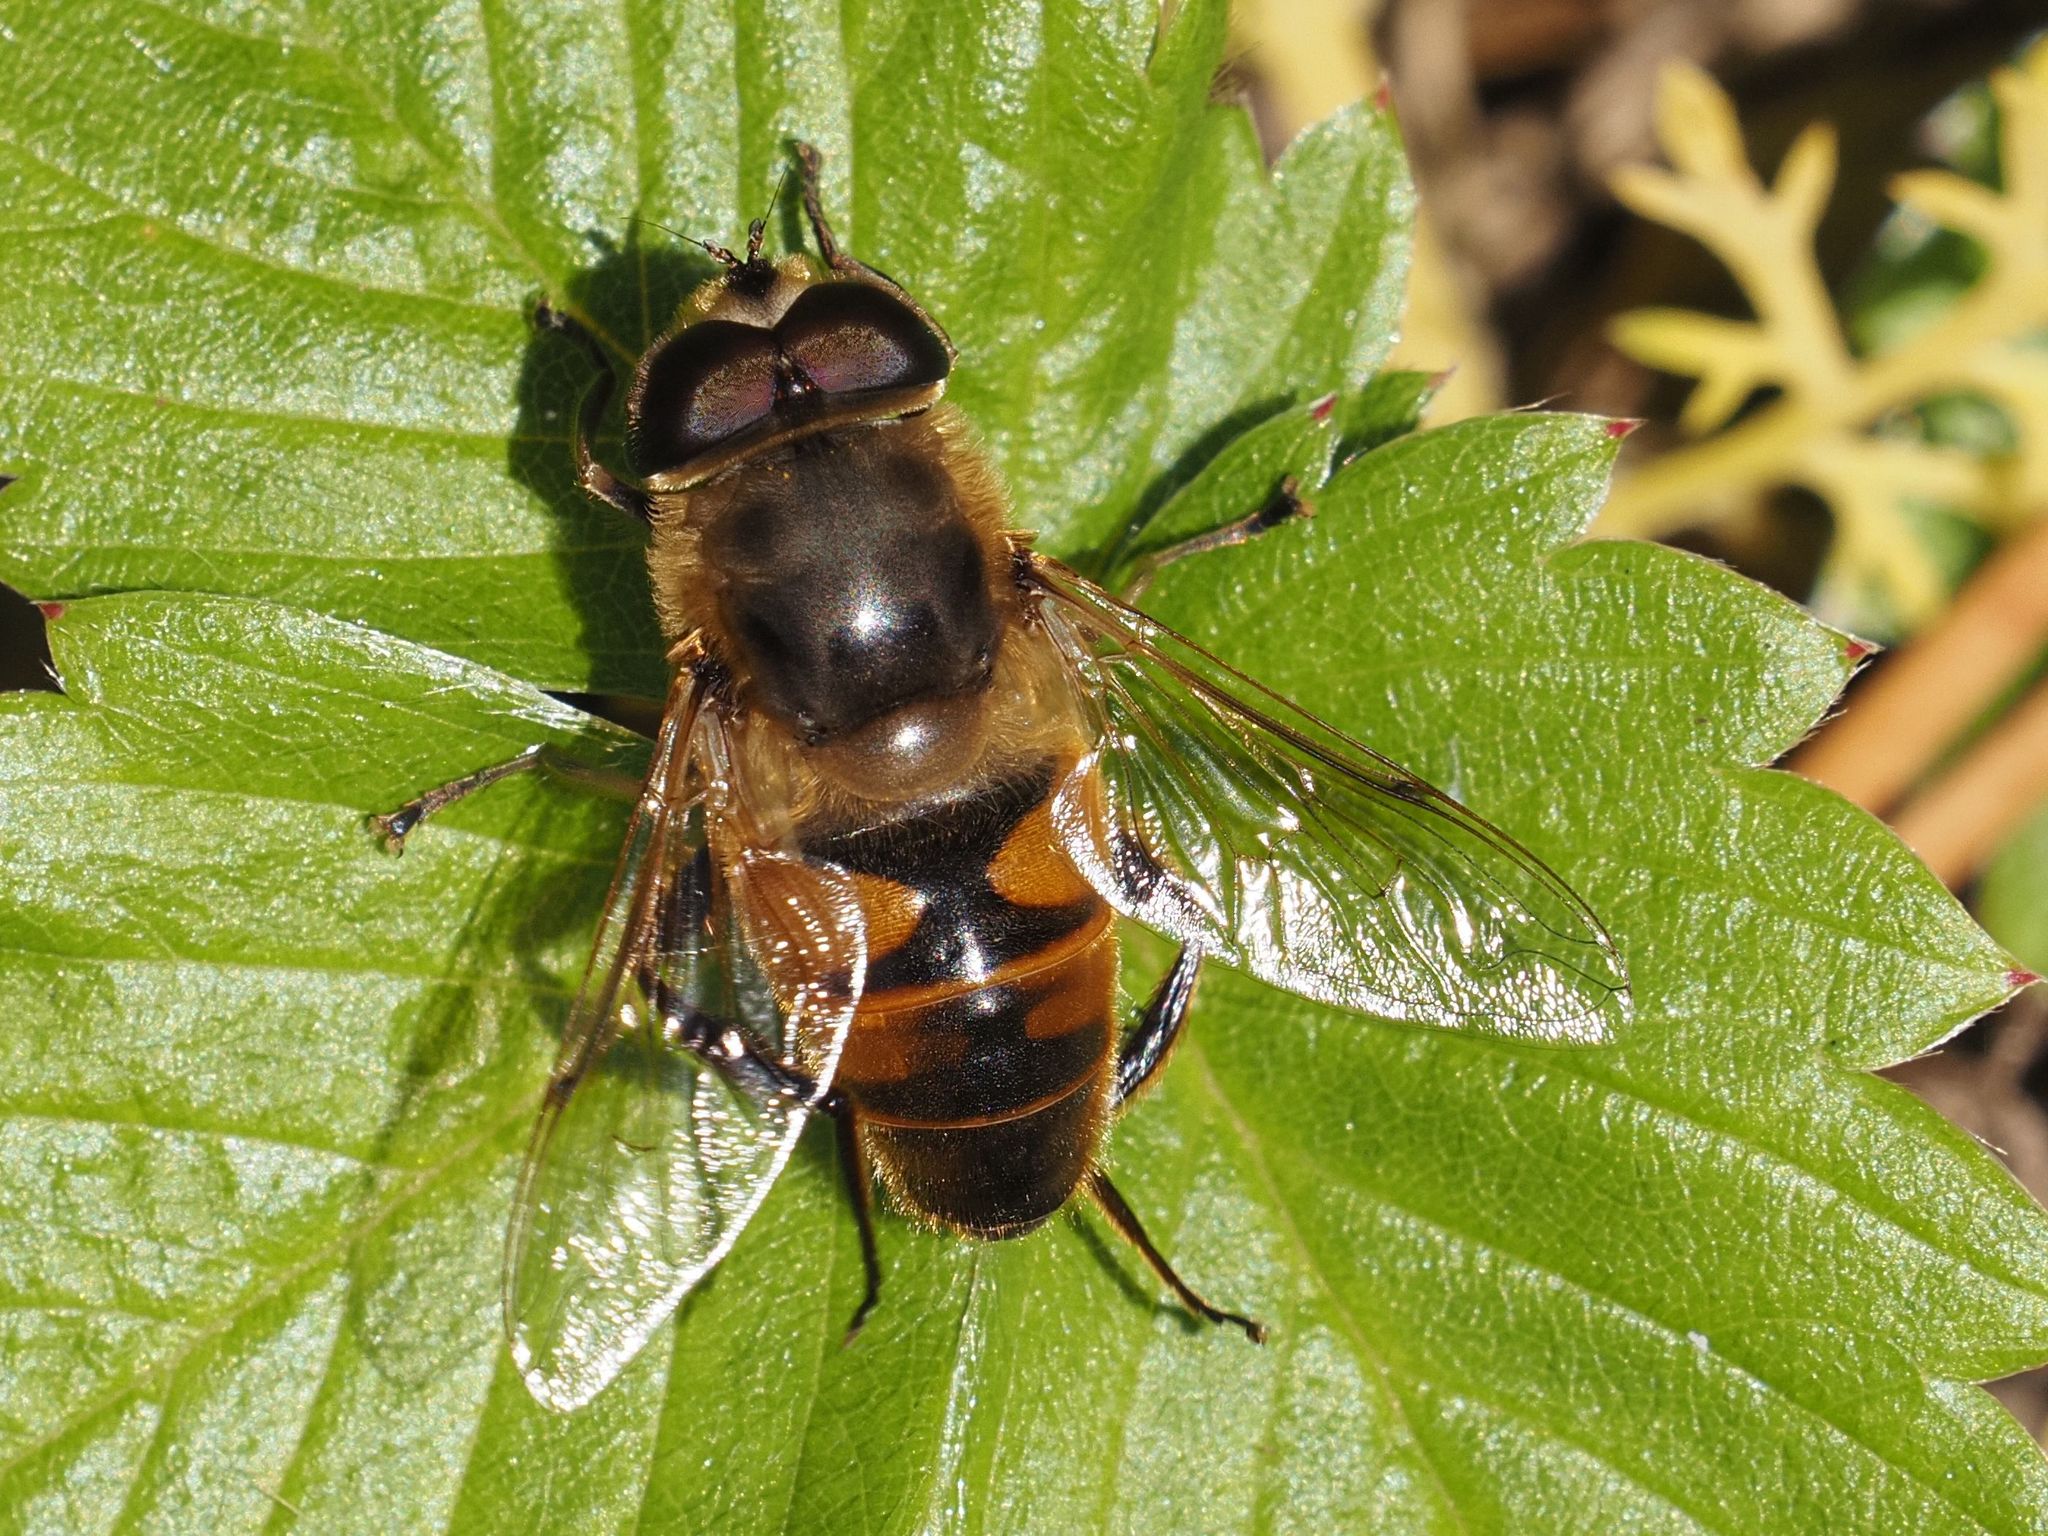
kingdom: Animalia
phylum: Arthropoda
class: Insecta
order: Diptera
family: Syrphidae
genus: Eristalis
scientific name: Eristalis tenax
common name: Drone fly
